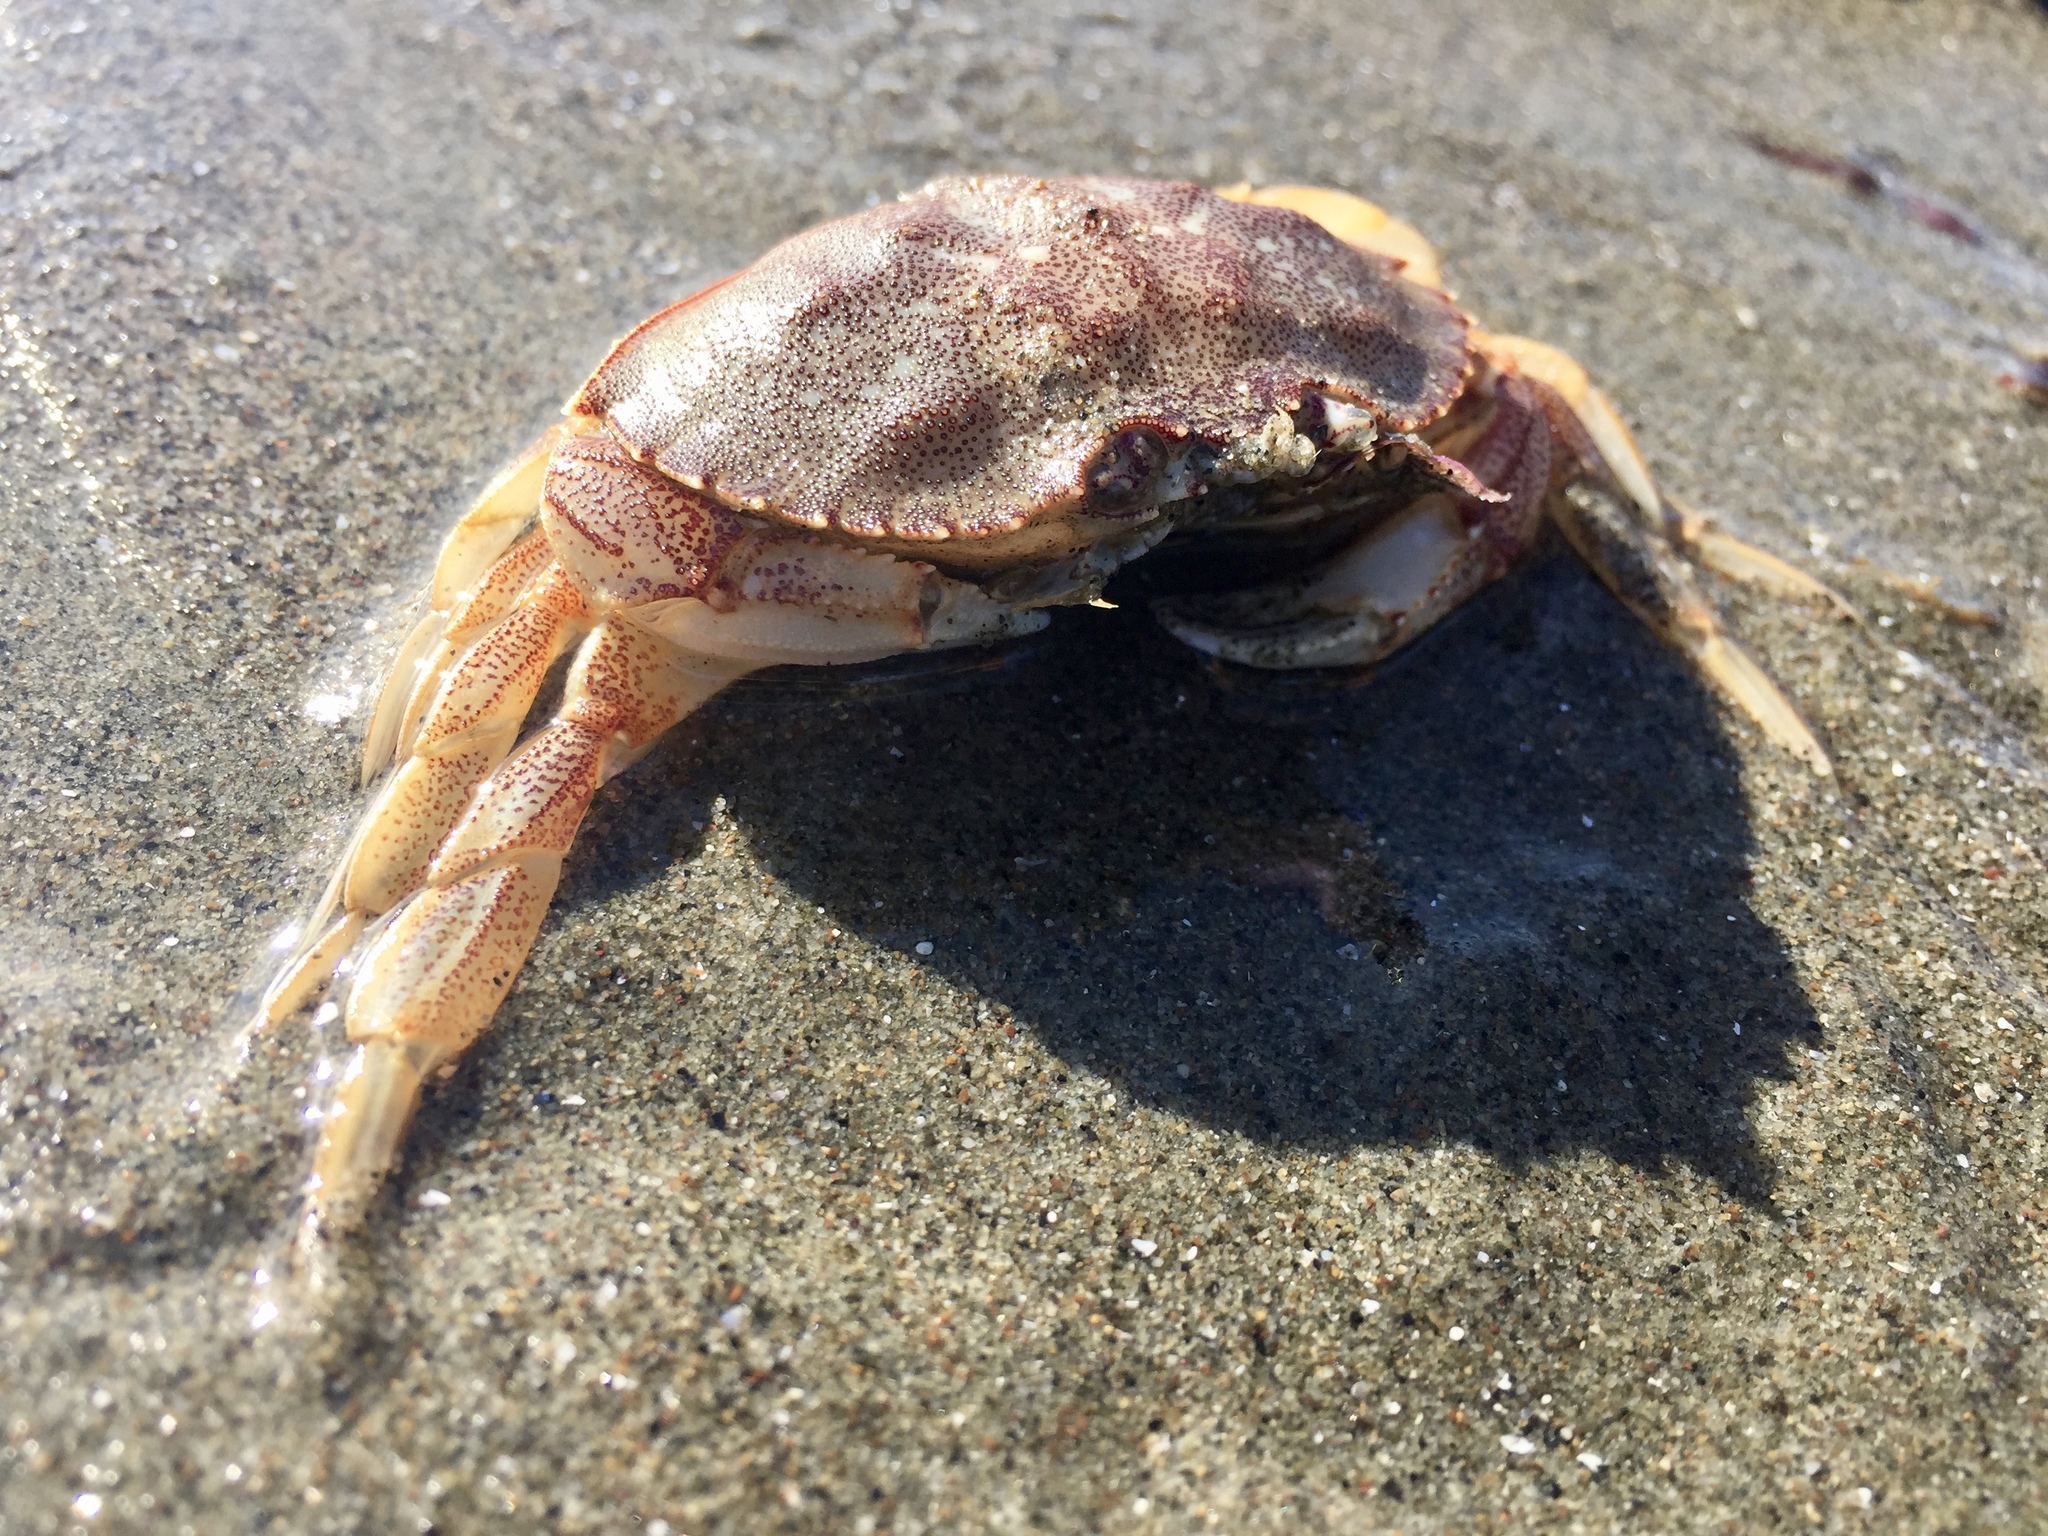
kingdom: Animalia
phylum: Arthropoda
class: Malacostraca
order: Decapoda
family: Cancridae
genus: Metacarcinus
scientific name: Metacarcinus magister
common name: Californian crab
